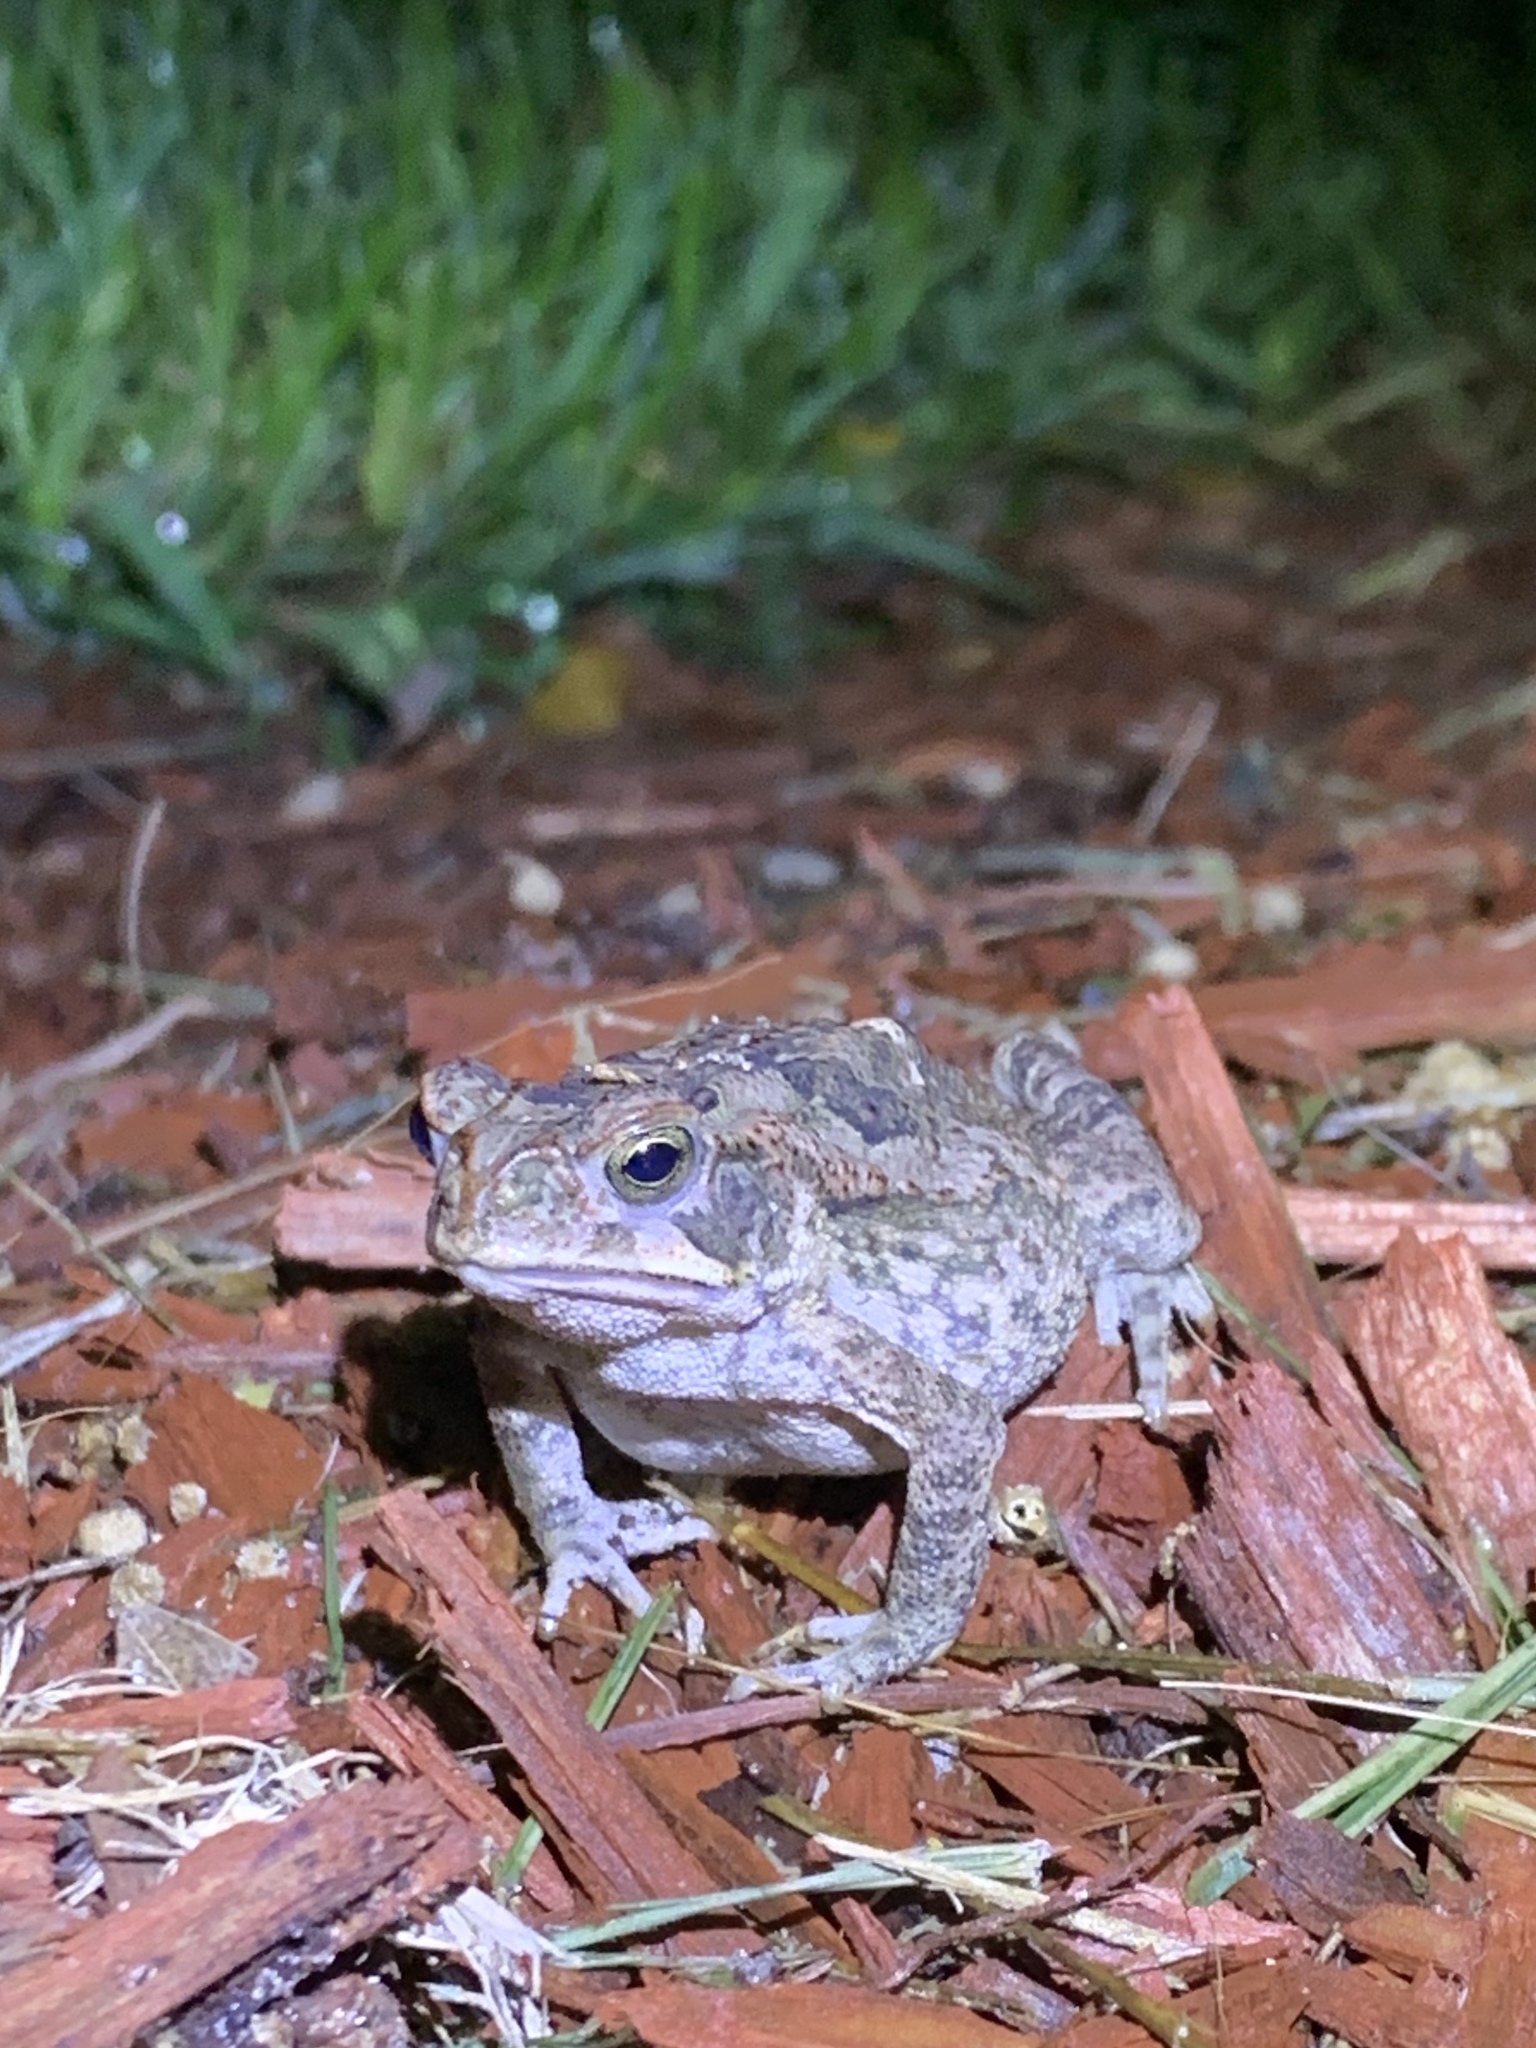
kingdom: Animalia
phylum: Chordata
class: Amphibia
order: Anura
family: Bufonidae
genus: Rhinella
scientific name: Rhinella marina
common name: Cane toad
